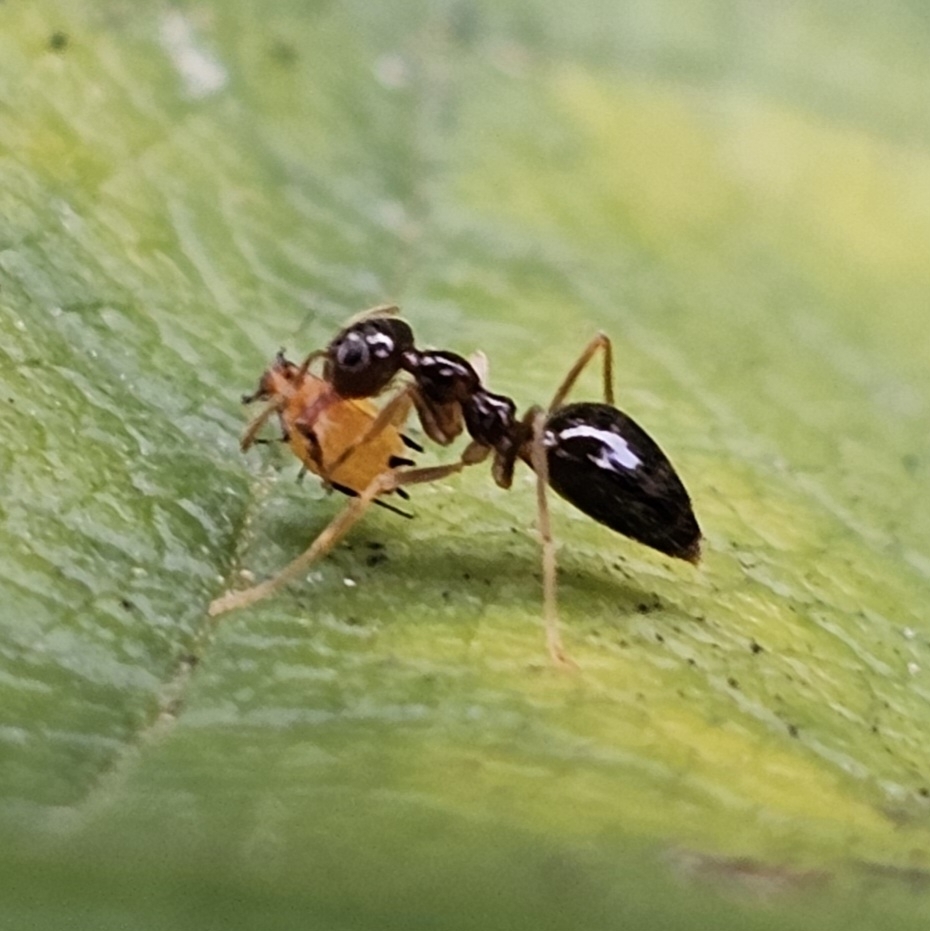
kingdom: Plantae
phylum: Tracheophyta
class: Magnoliopsida
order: Gentianales
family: Apocynaceae
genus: Asclepias
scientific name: Asclepias syriaca
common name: Common milkweed
